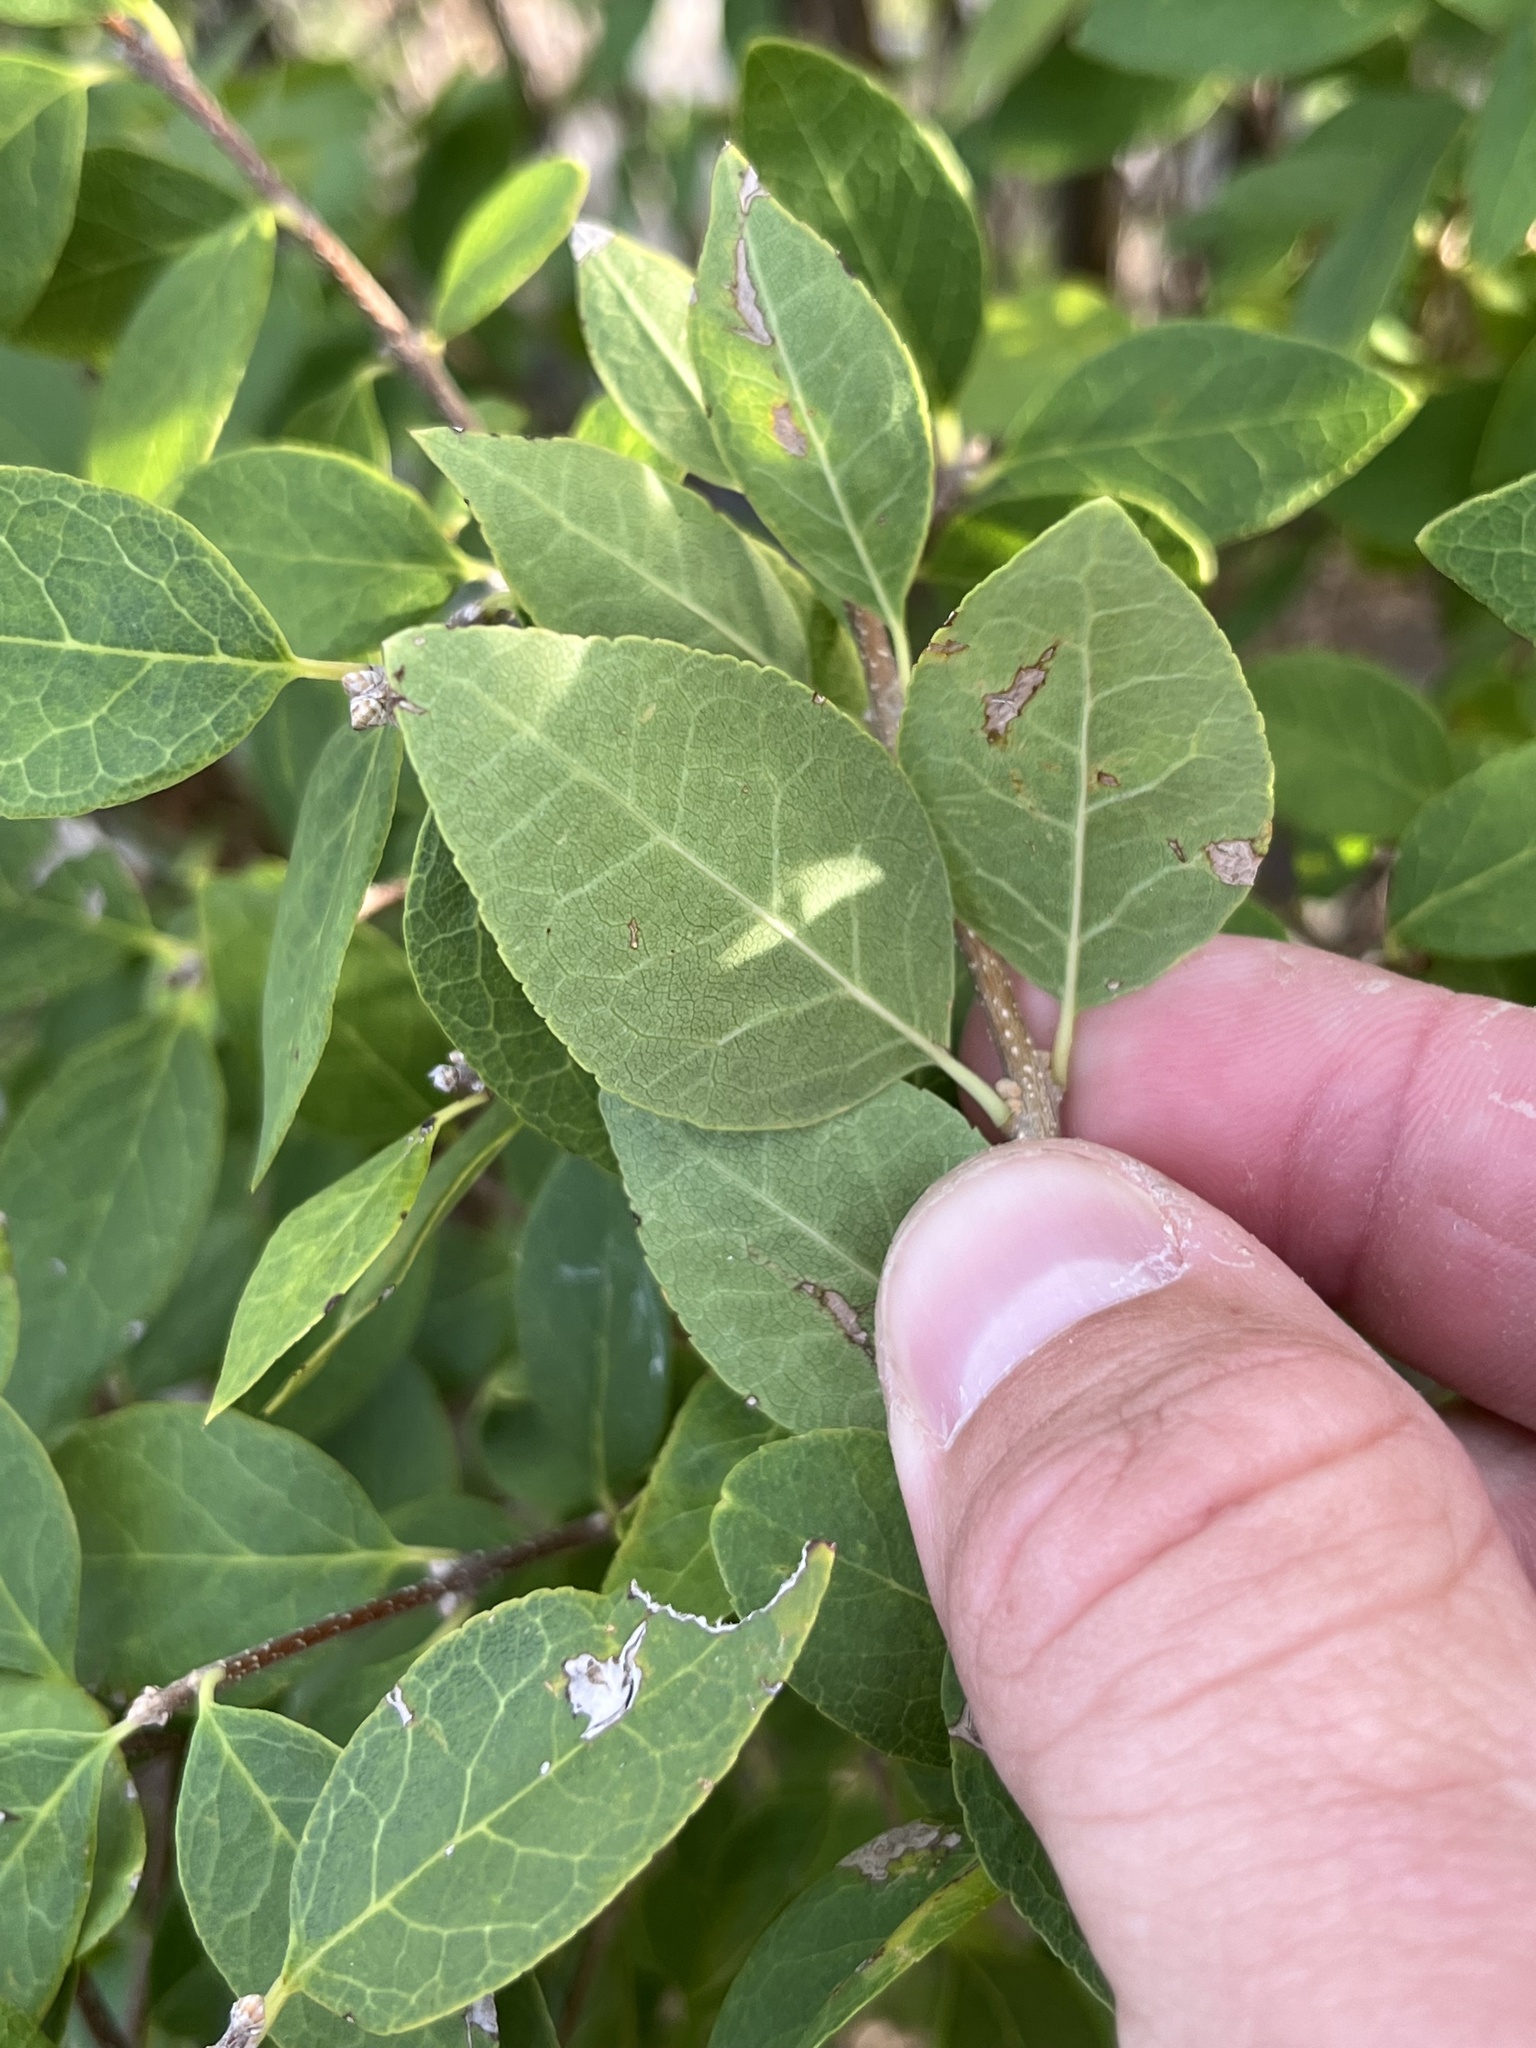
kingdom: Plantae
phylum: Tracheophyta
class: Magnoliopsida
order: Lamiales
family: Oleaceae
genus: Forestiera
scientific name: Forestiera reticulata
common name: Netleaf swamp-privet
